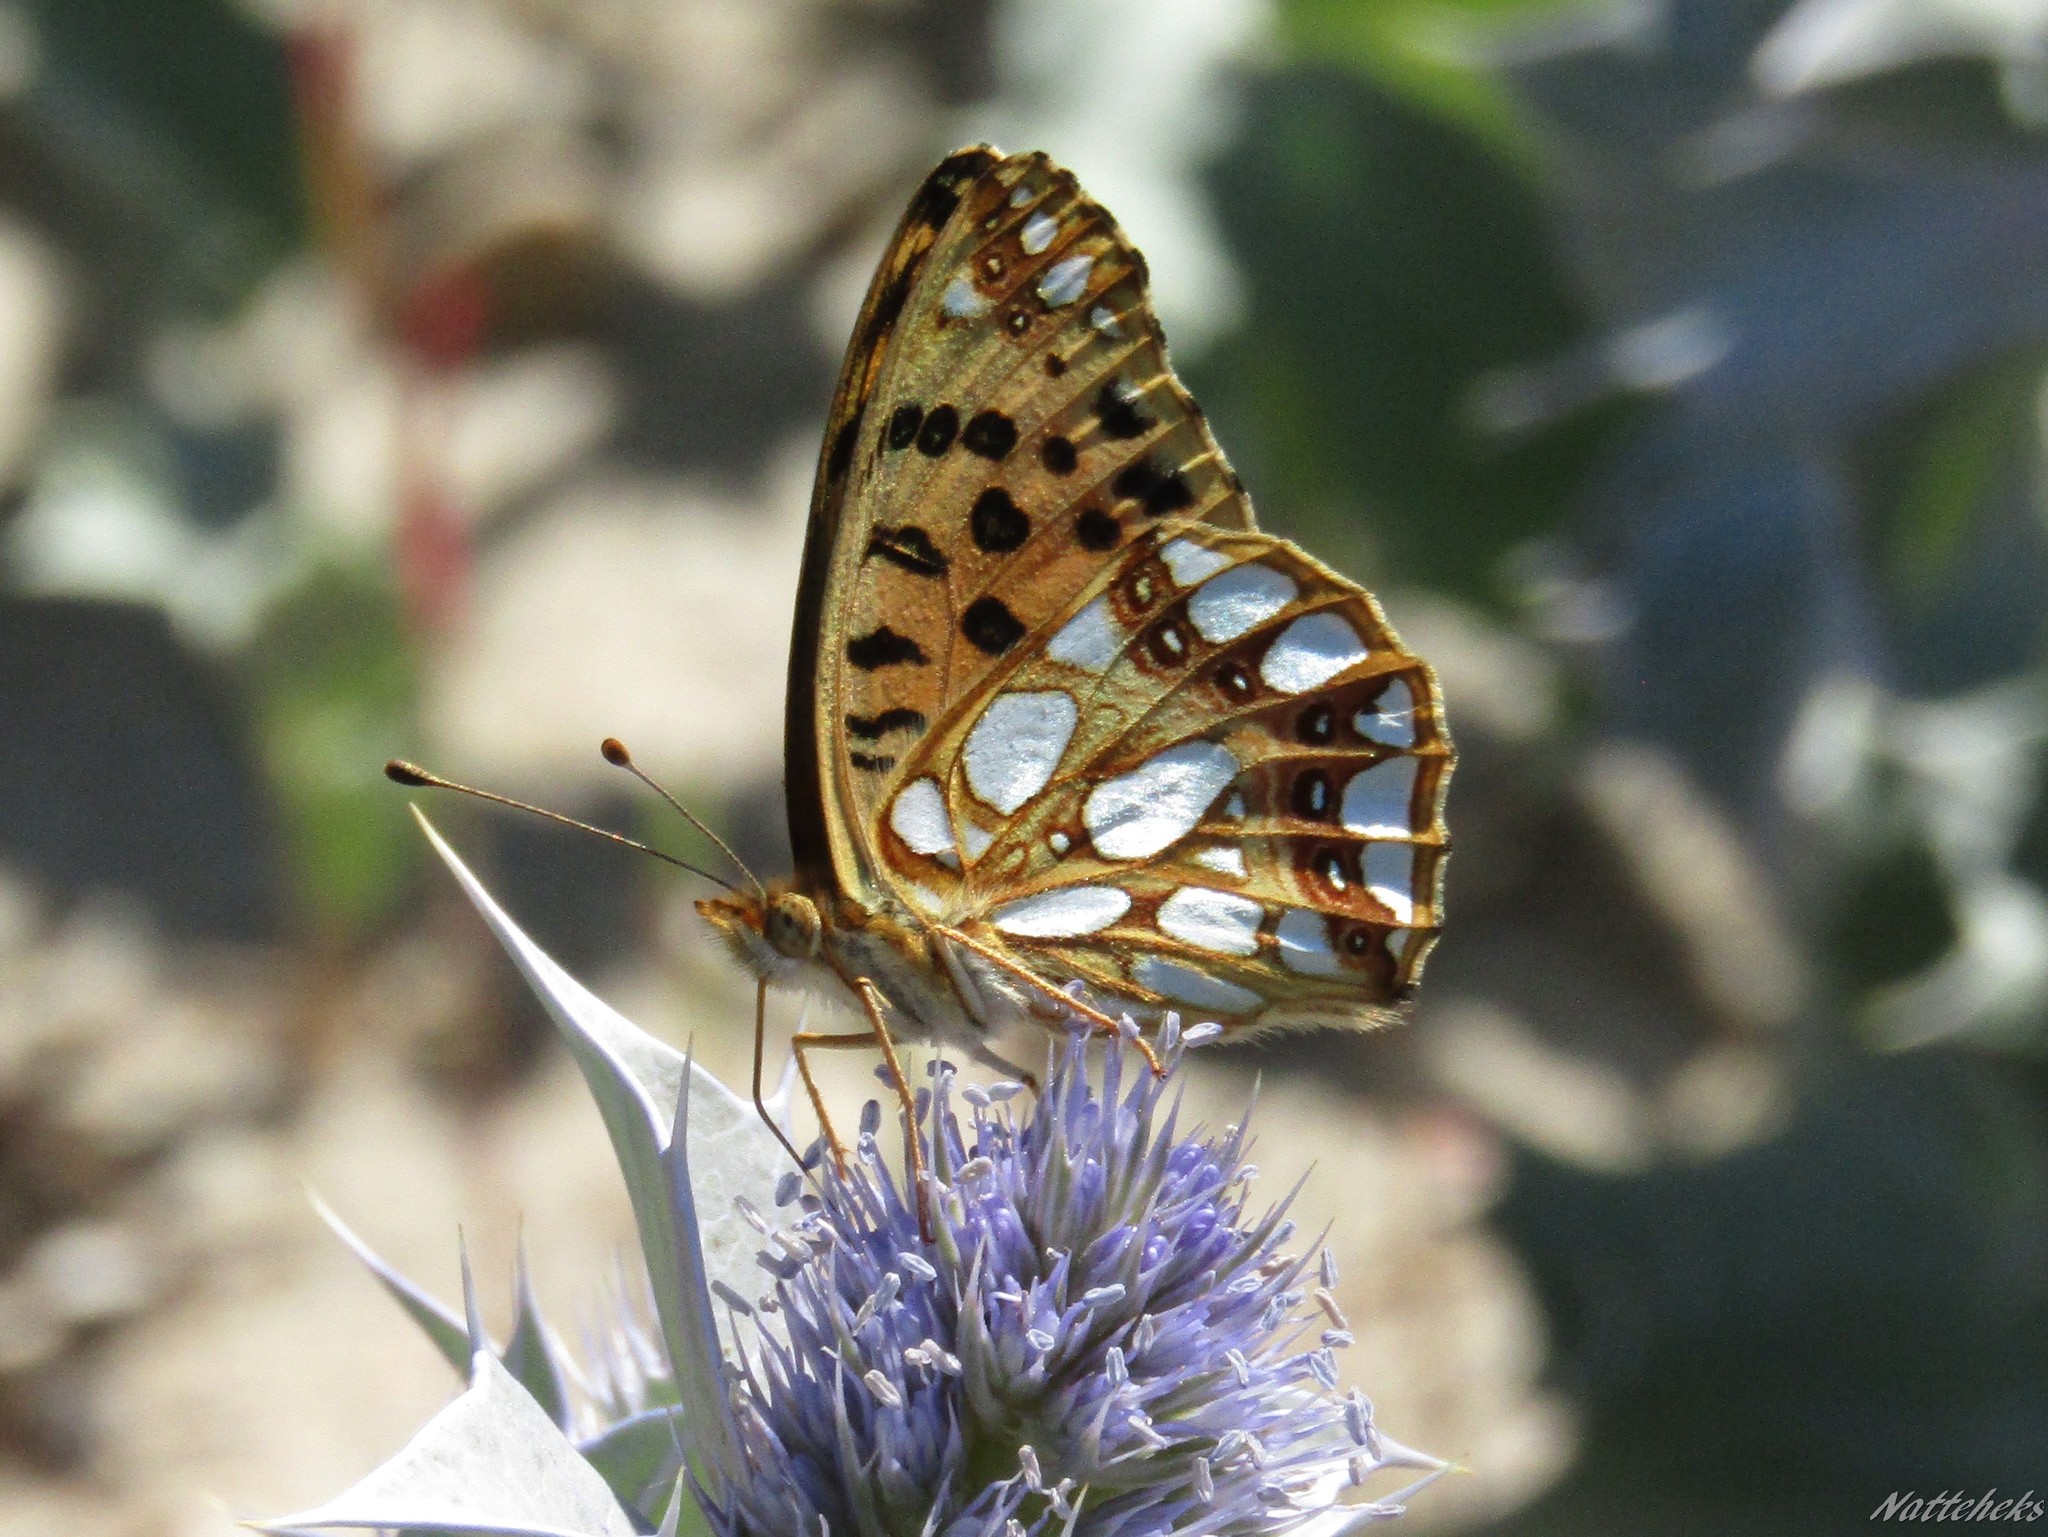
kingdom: Animalia
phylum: Arthropoda
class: Insecta
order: Lepidoptera
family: Nymphalidae
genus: Issoria
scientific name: Issoria lathonia
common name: Queen of spain fritillary
